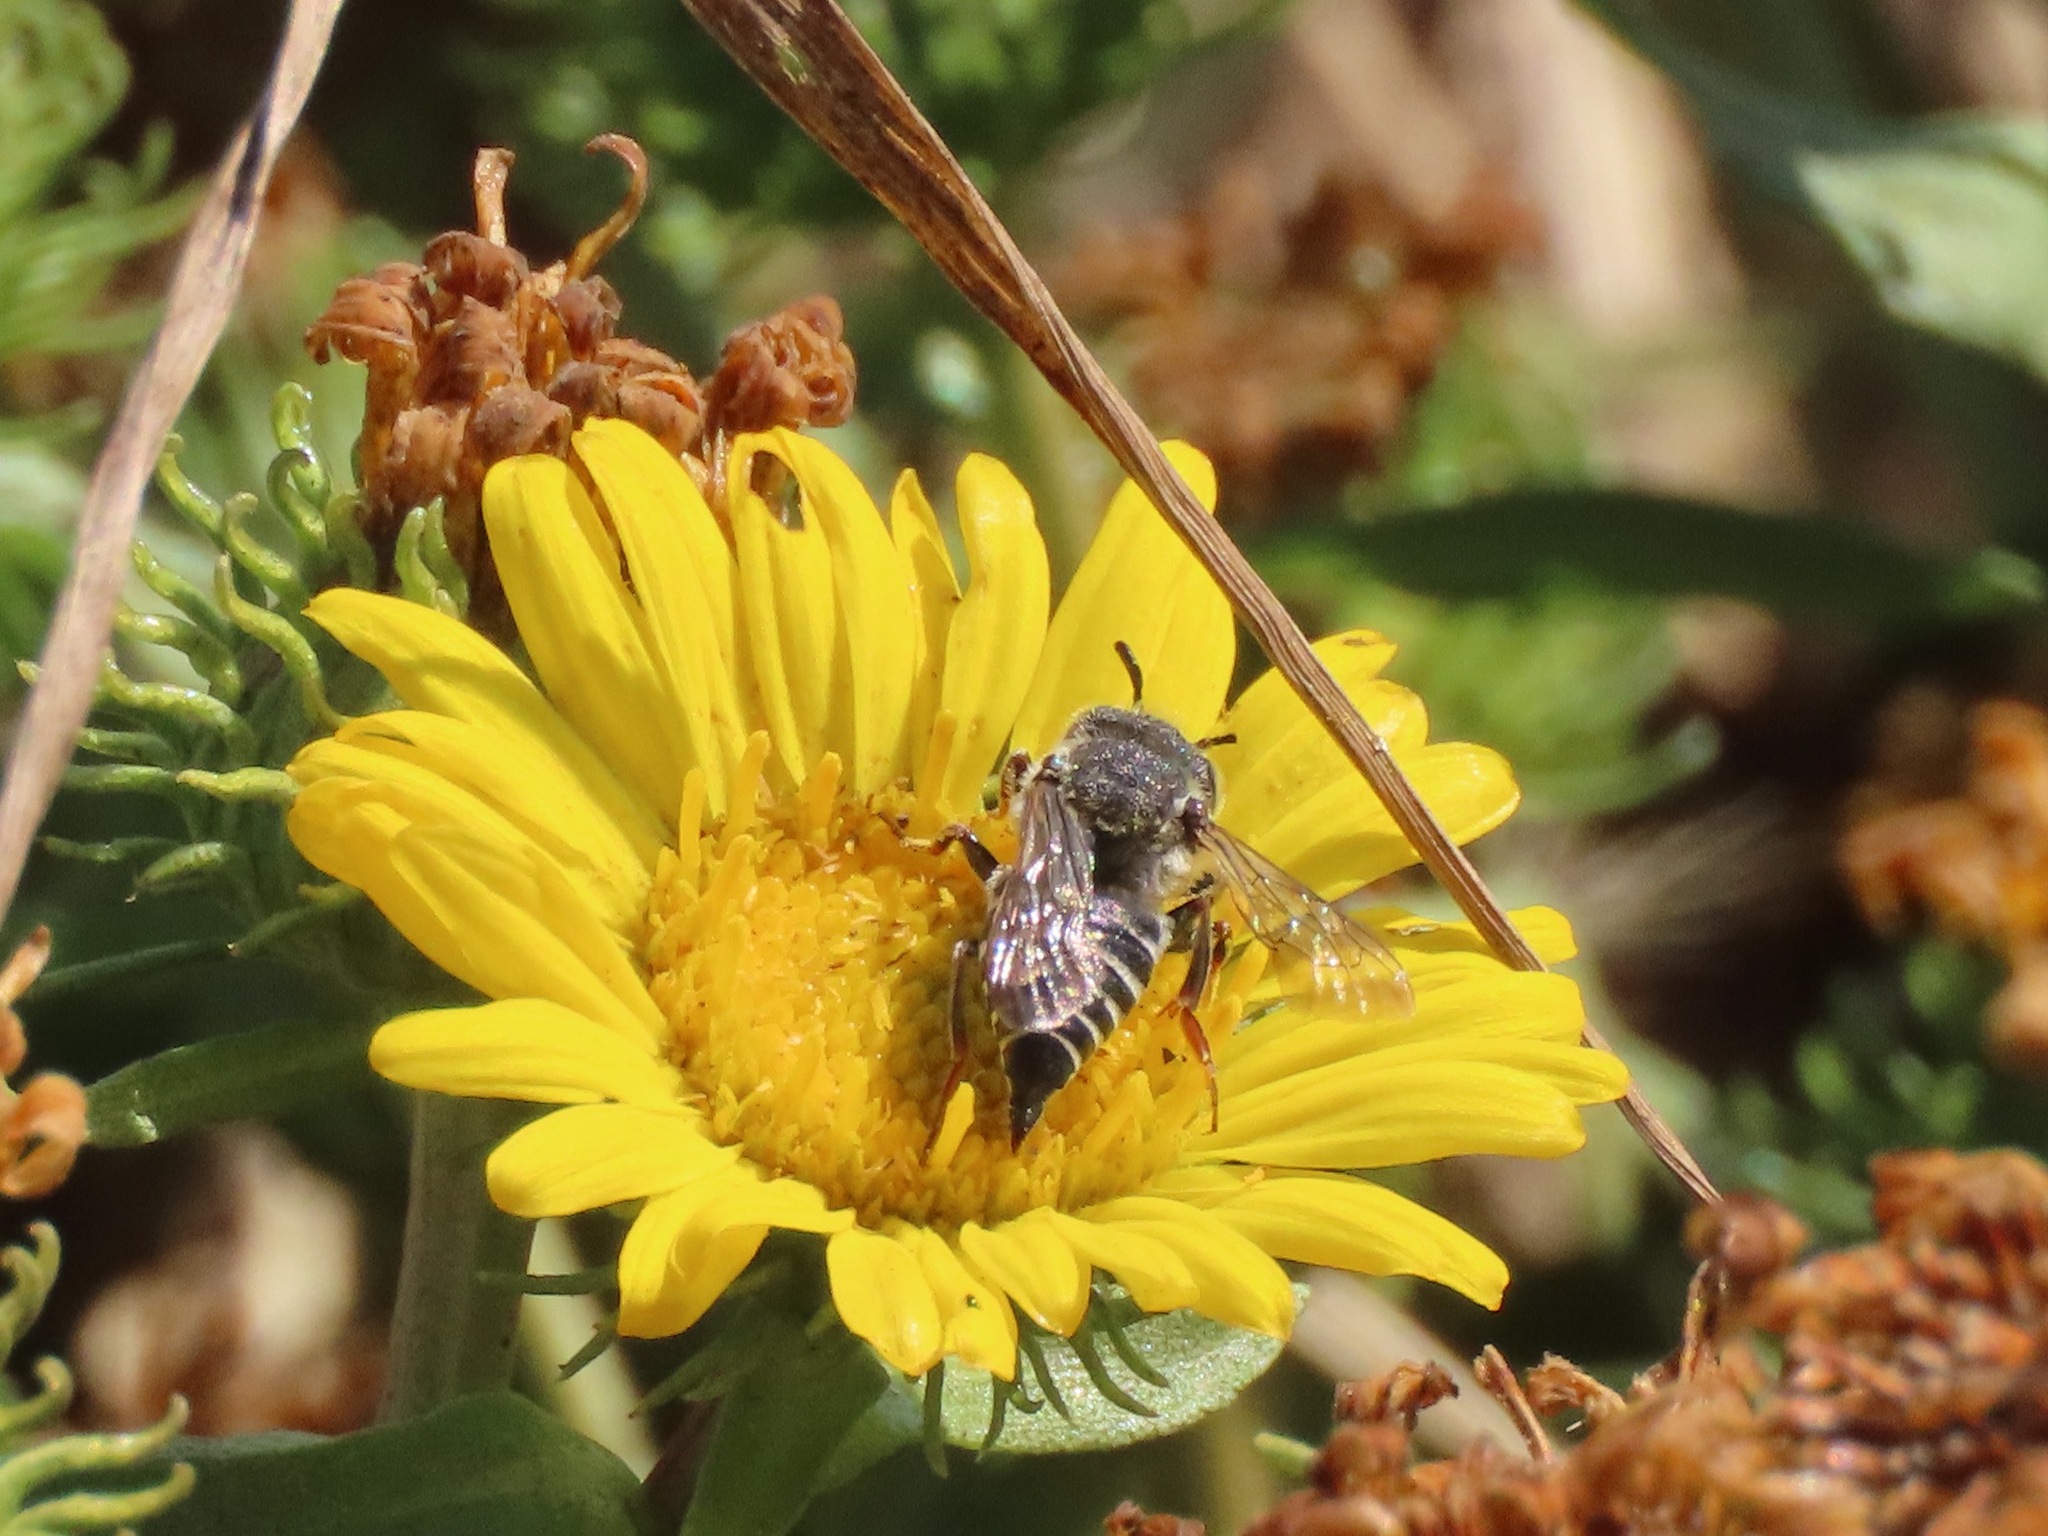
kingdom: Animalia
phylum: Arthropoda
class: Insecta
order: Hymenoptera
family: Megachilidae
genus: Coelioxys
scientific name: Coelioxys rufitarsis
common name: Red-footed sharptail
